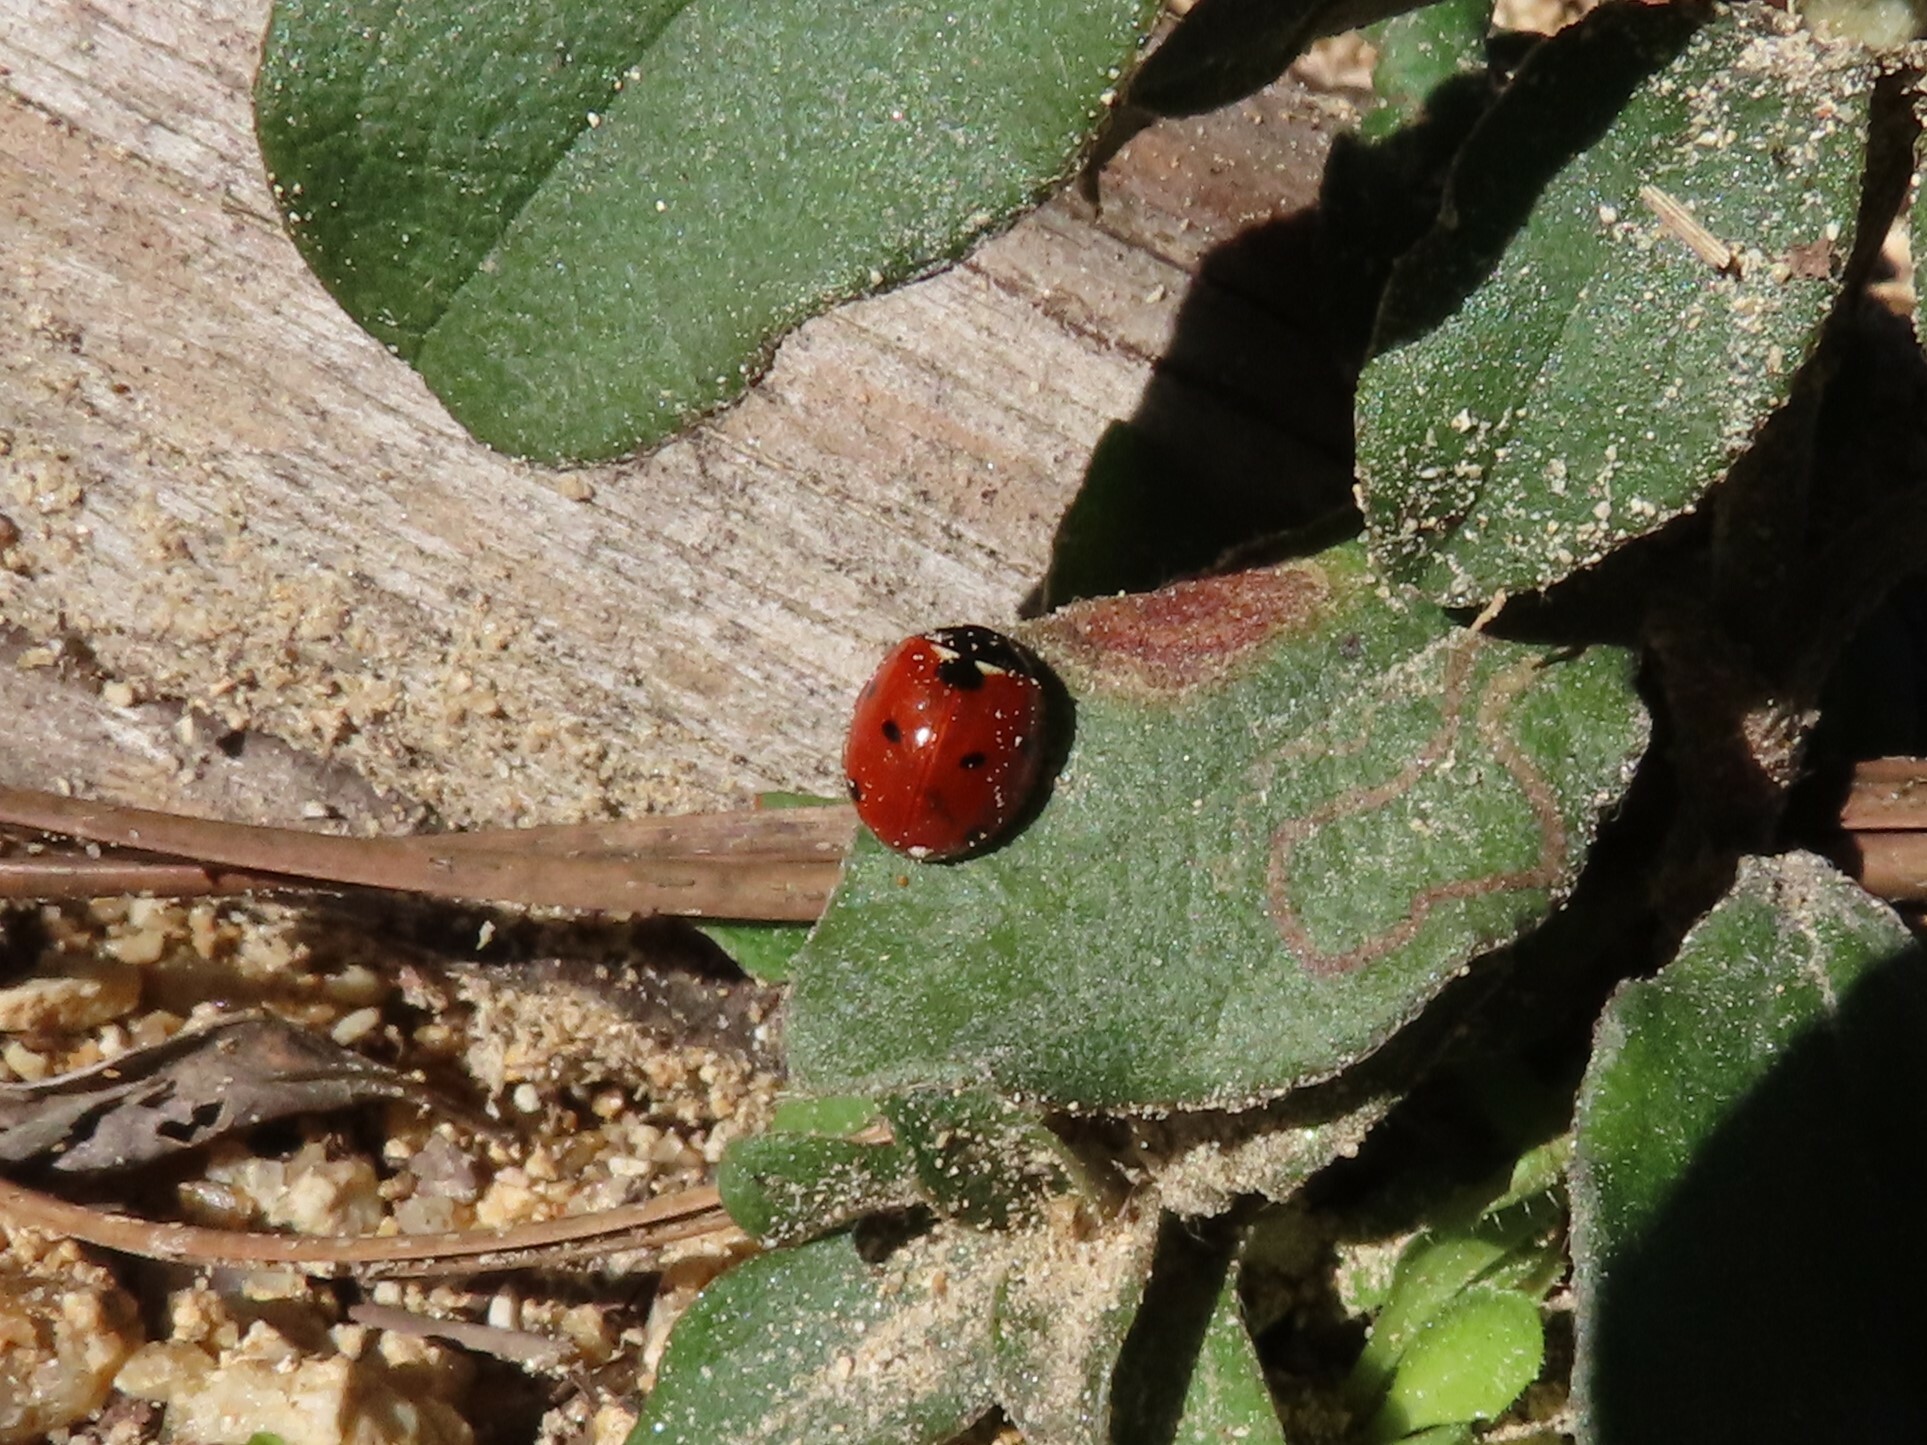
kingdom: Animalia
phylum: Arthropoda
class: Insecta
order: Coleoptera
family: Coccinellidae
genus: Coccinella
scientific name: Coccinella septempunctata
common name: Sevenspotted lady beetle
